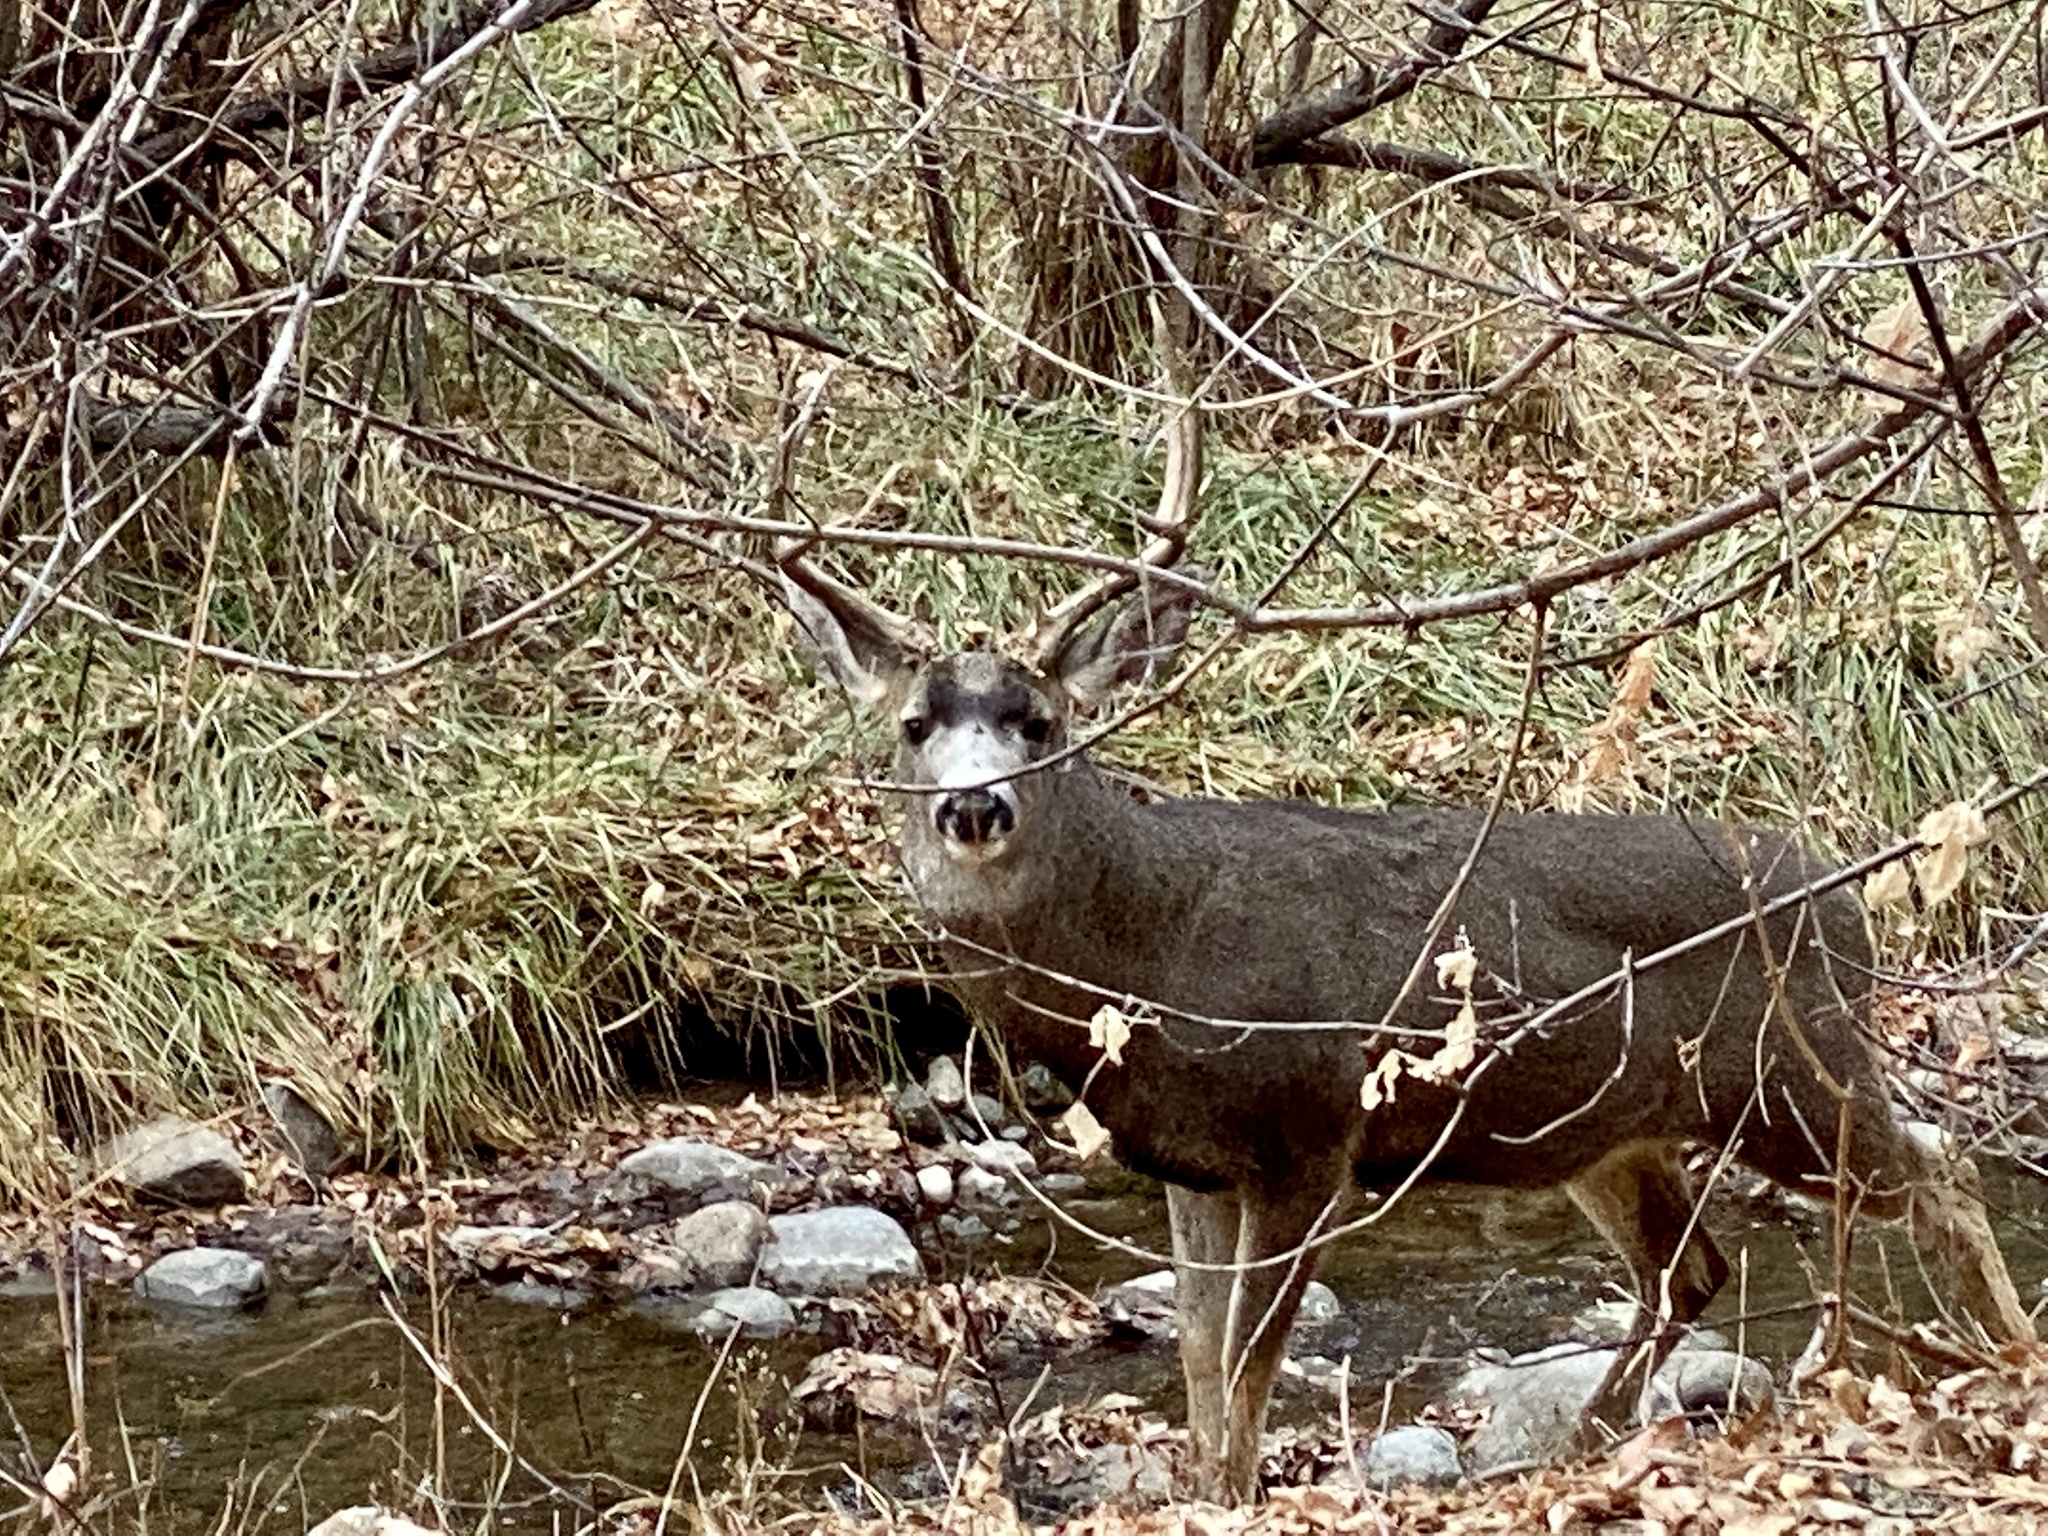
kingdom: Animalia
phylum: Chordata
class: Mammalia
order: Artiodactyla
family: Cervidae
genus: Odocoileus
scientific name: Odocoileus hemionus
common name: Mule deer
